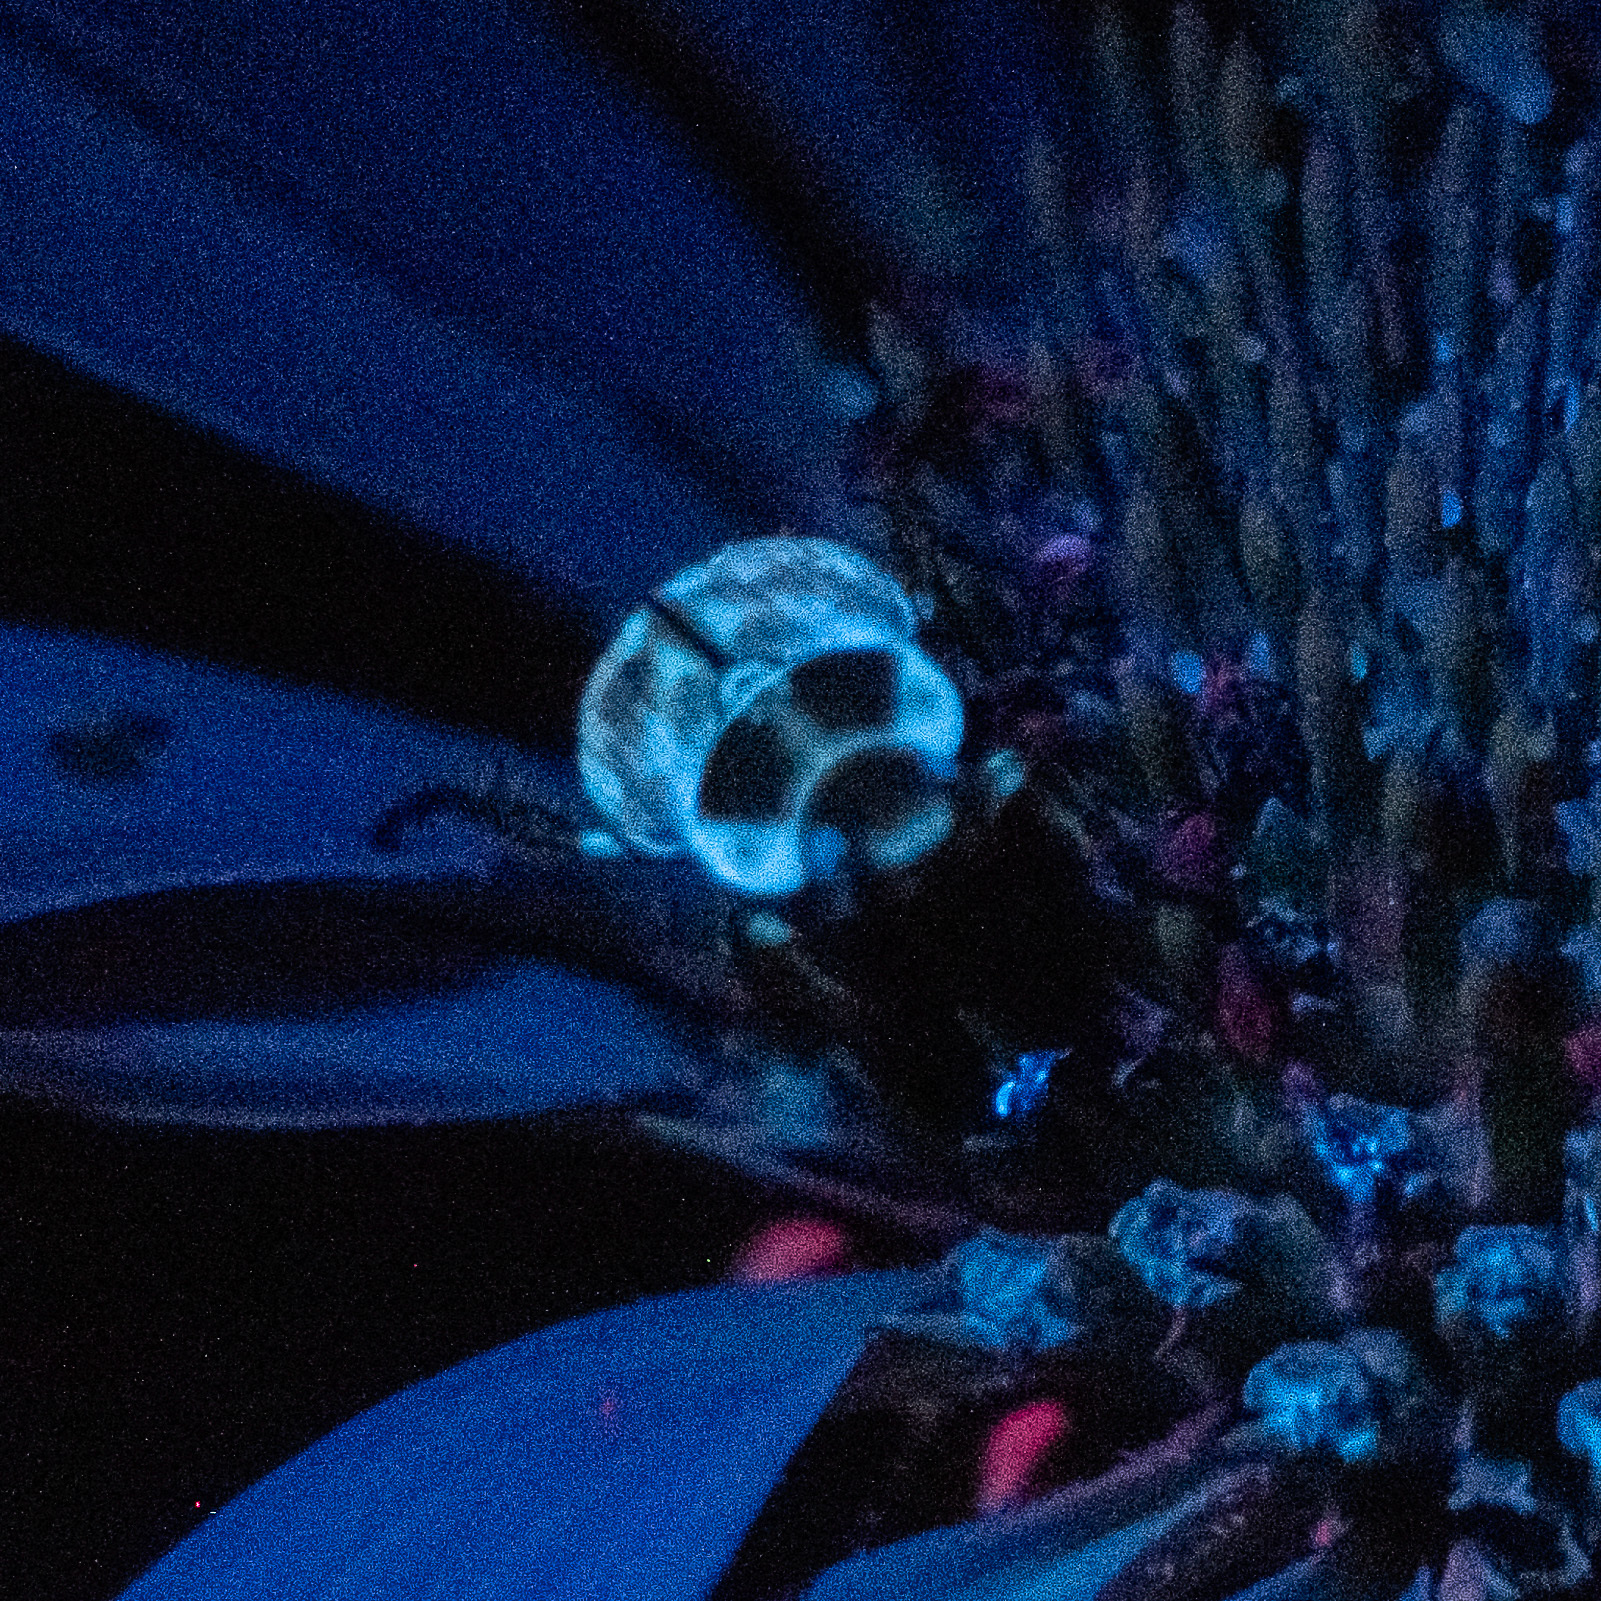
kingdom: Animalia
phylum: Arthropoda
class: Insecta
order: Coleoptera
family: Scarabaeidae
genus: Exomala
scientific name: Exomala orientalis
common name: Oriental beetle
